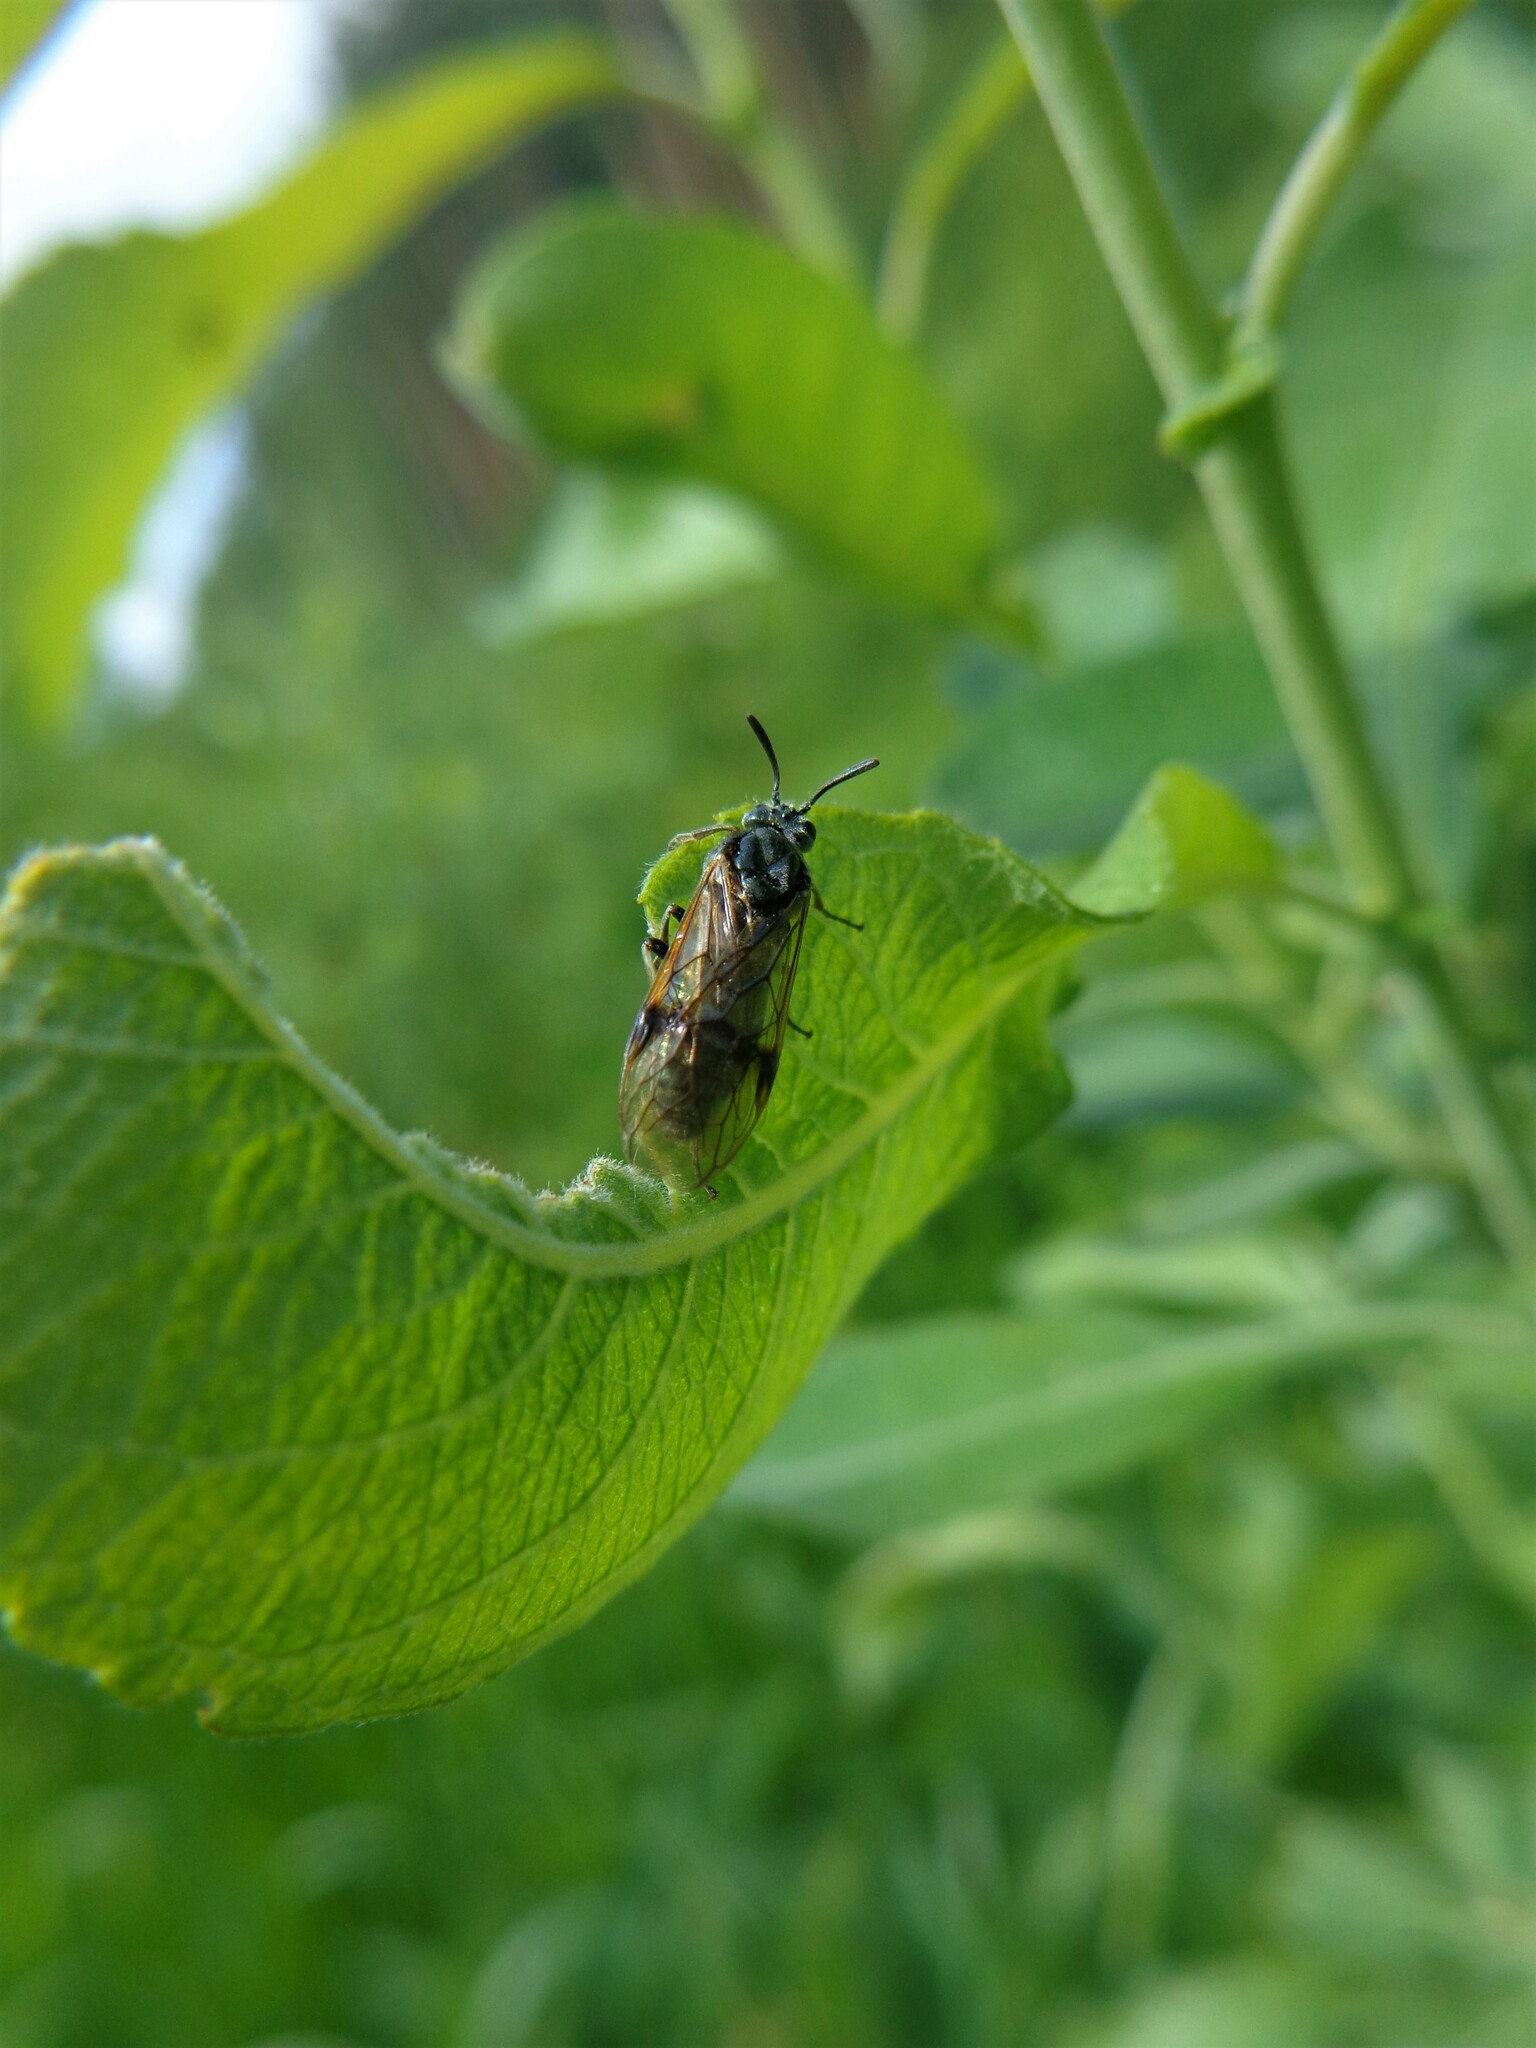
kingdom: Animalia
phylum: Arthropoda
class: Insecta
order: Hymenoptera
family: Argidae
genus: Arge
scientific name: Arge ustulata
